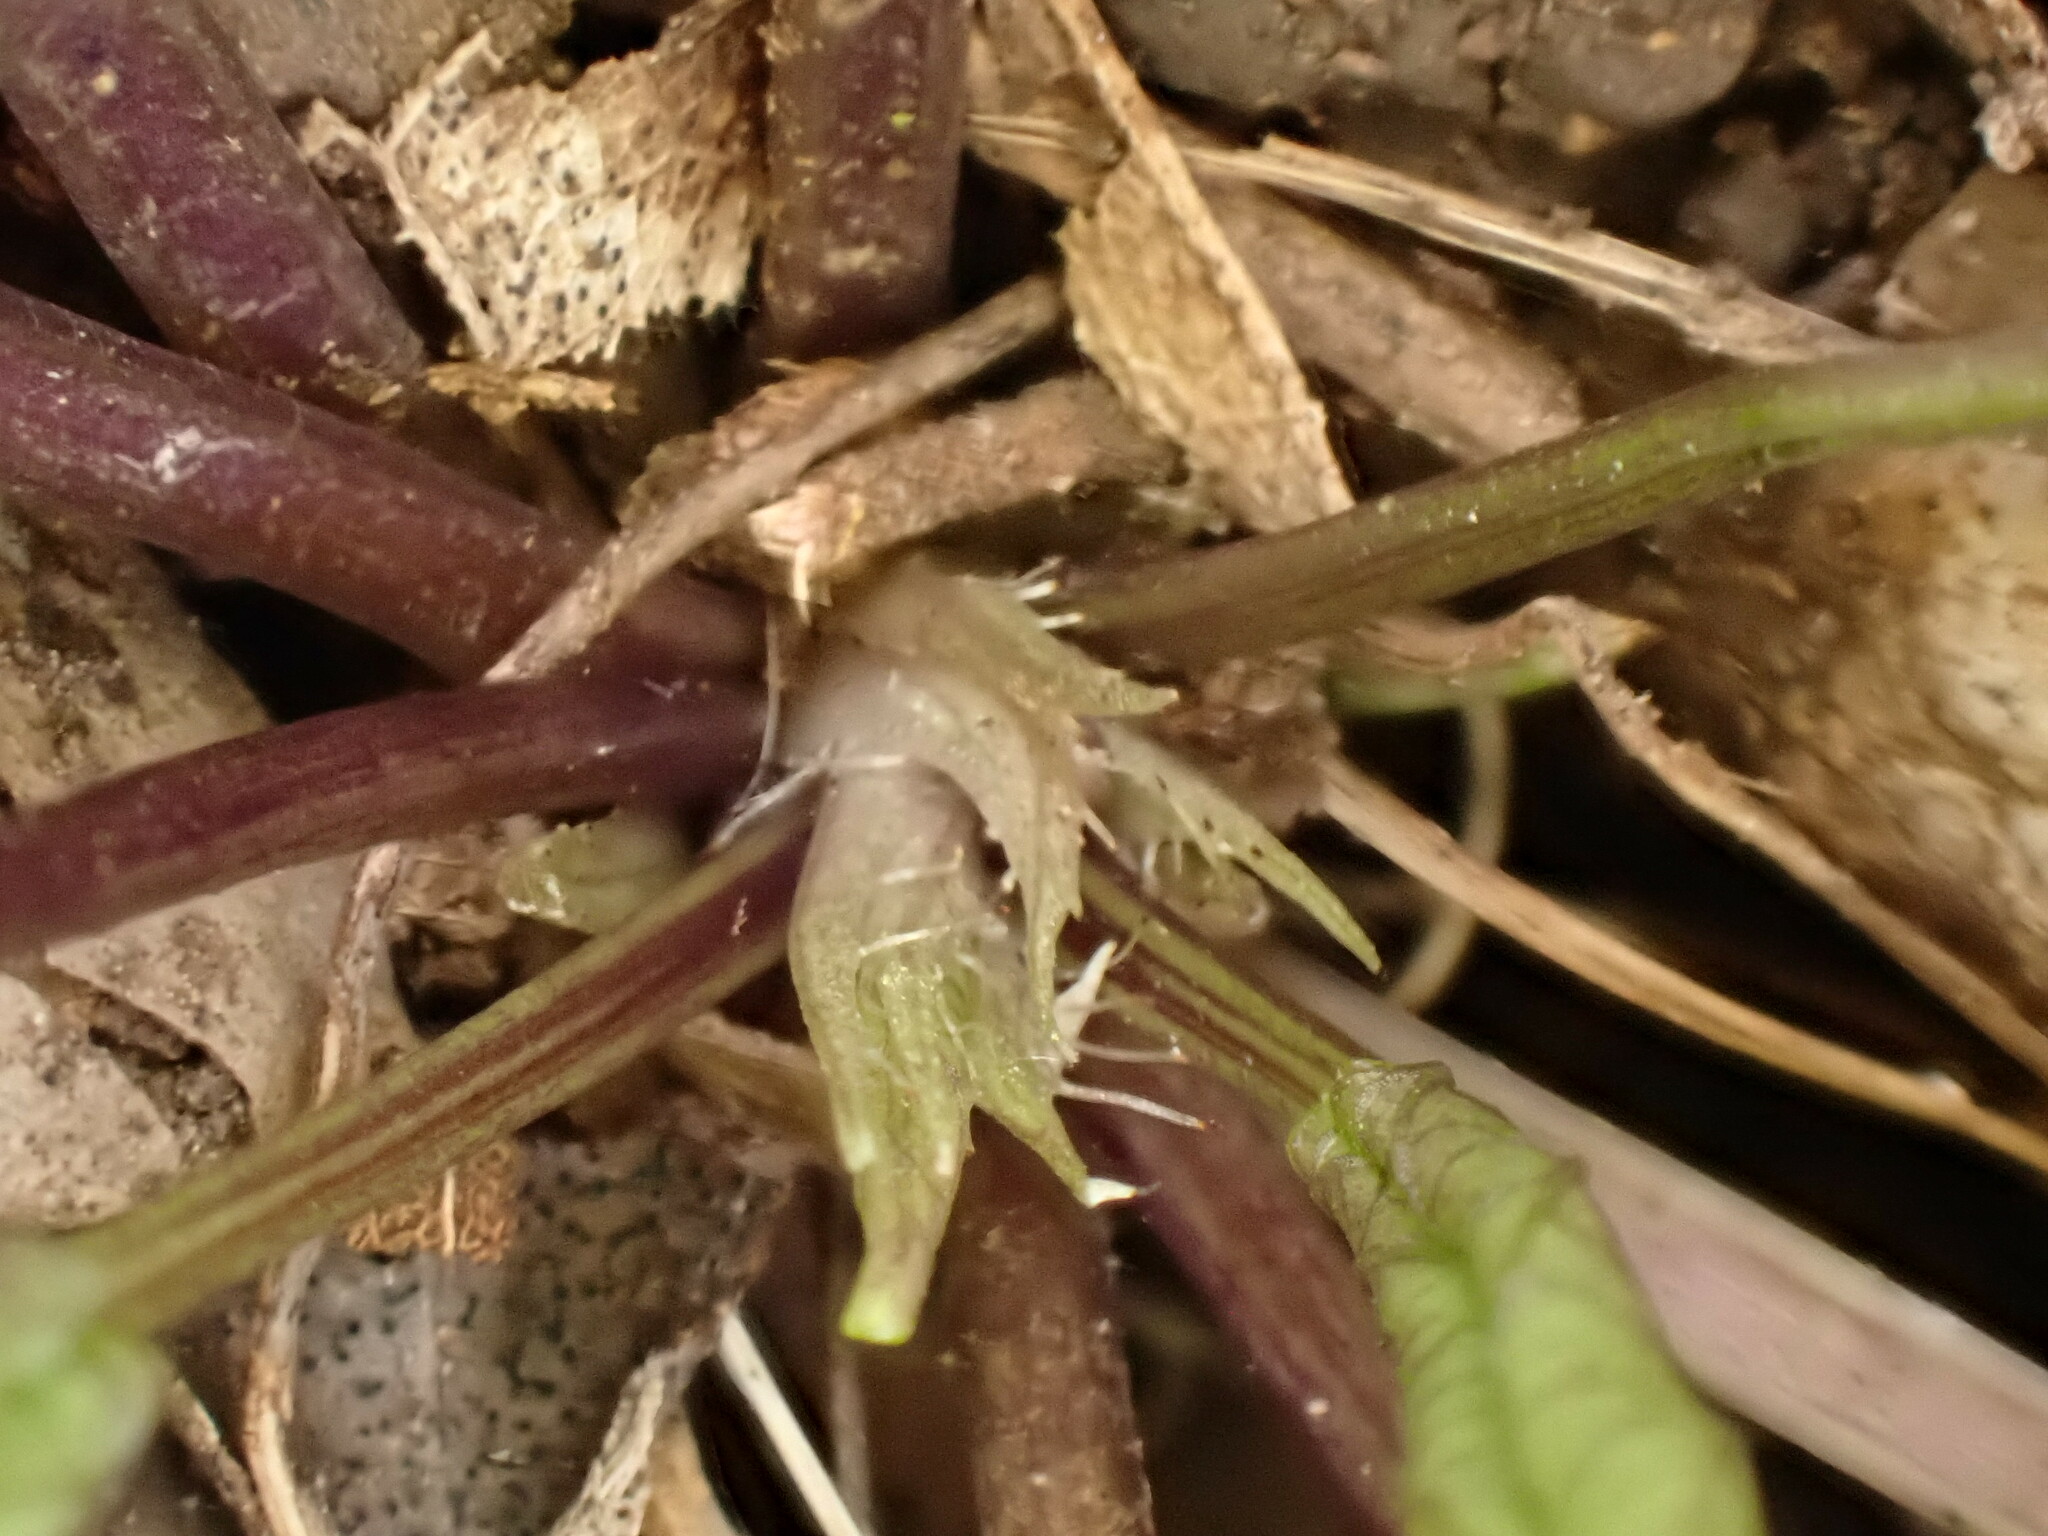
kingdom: Plantae
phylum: Tracheophyta
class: Magnoliopsida
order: Malpighiales
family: Violaceae
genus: Viola
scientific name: Viola alba
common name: White violet
